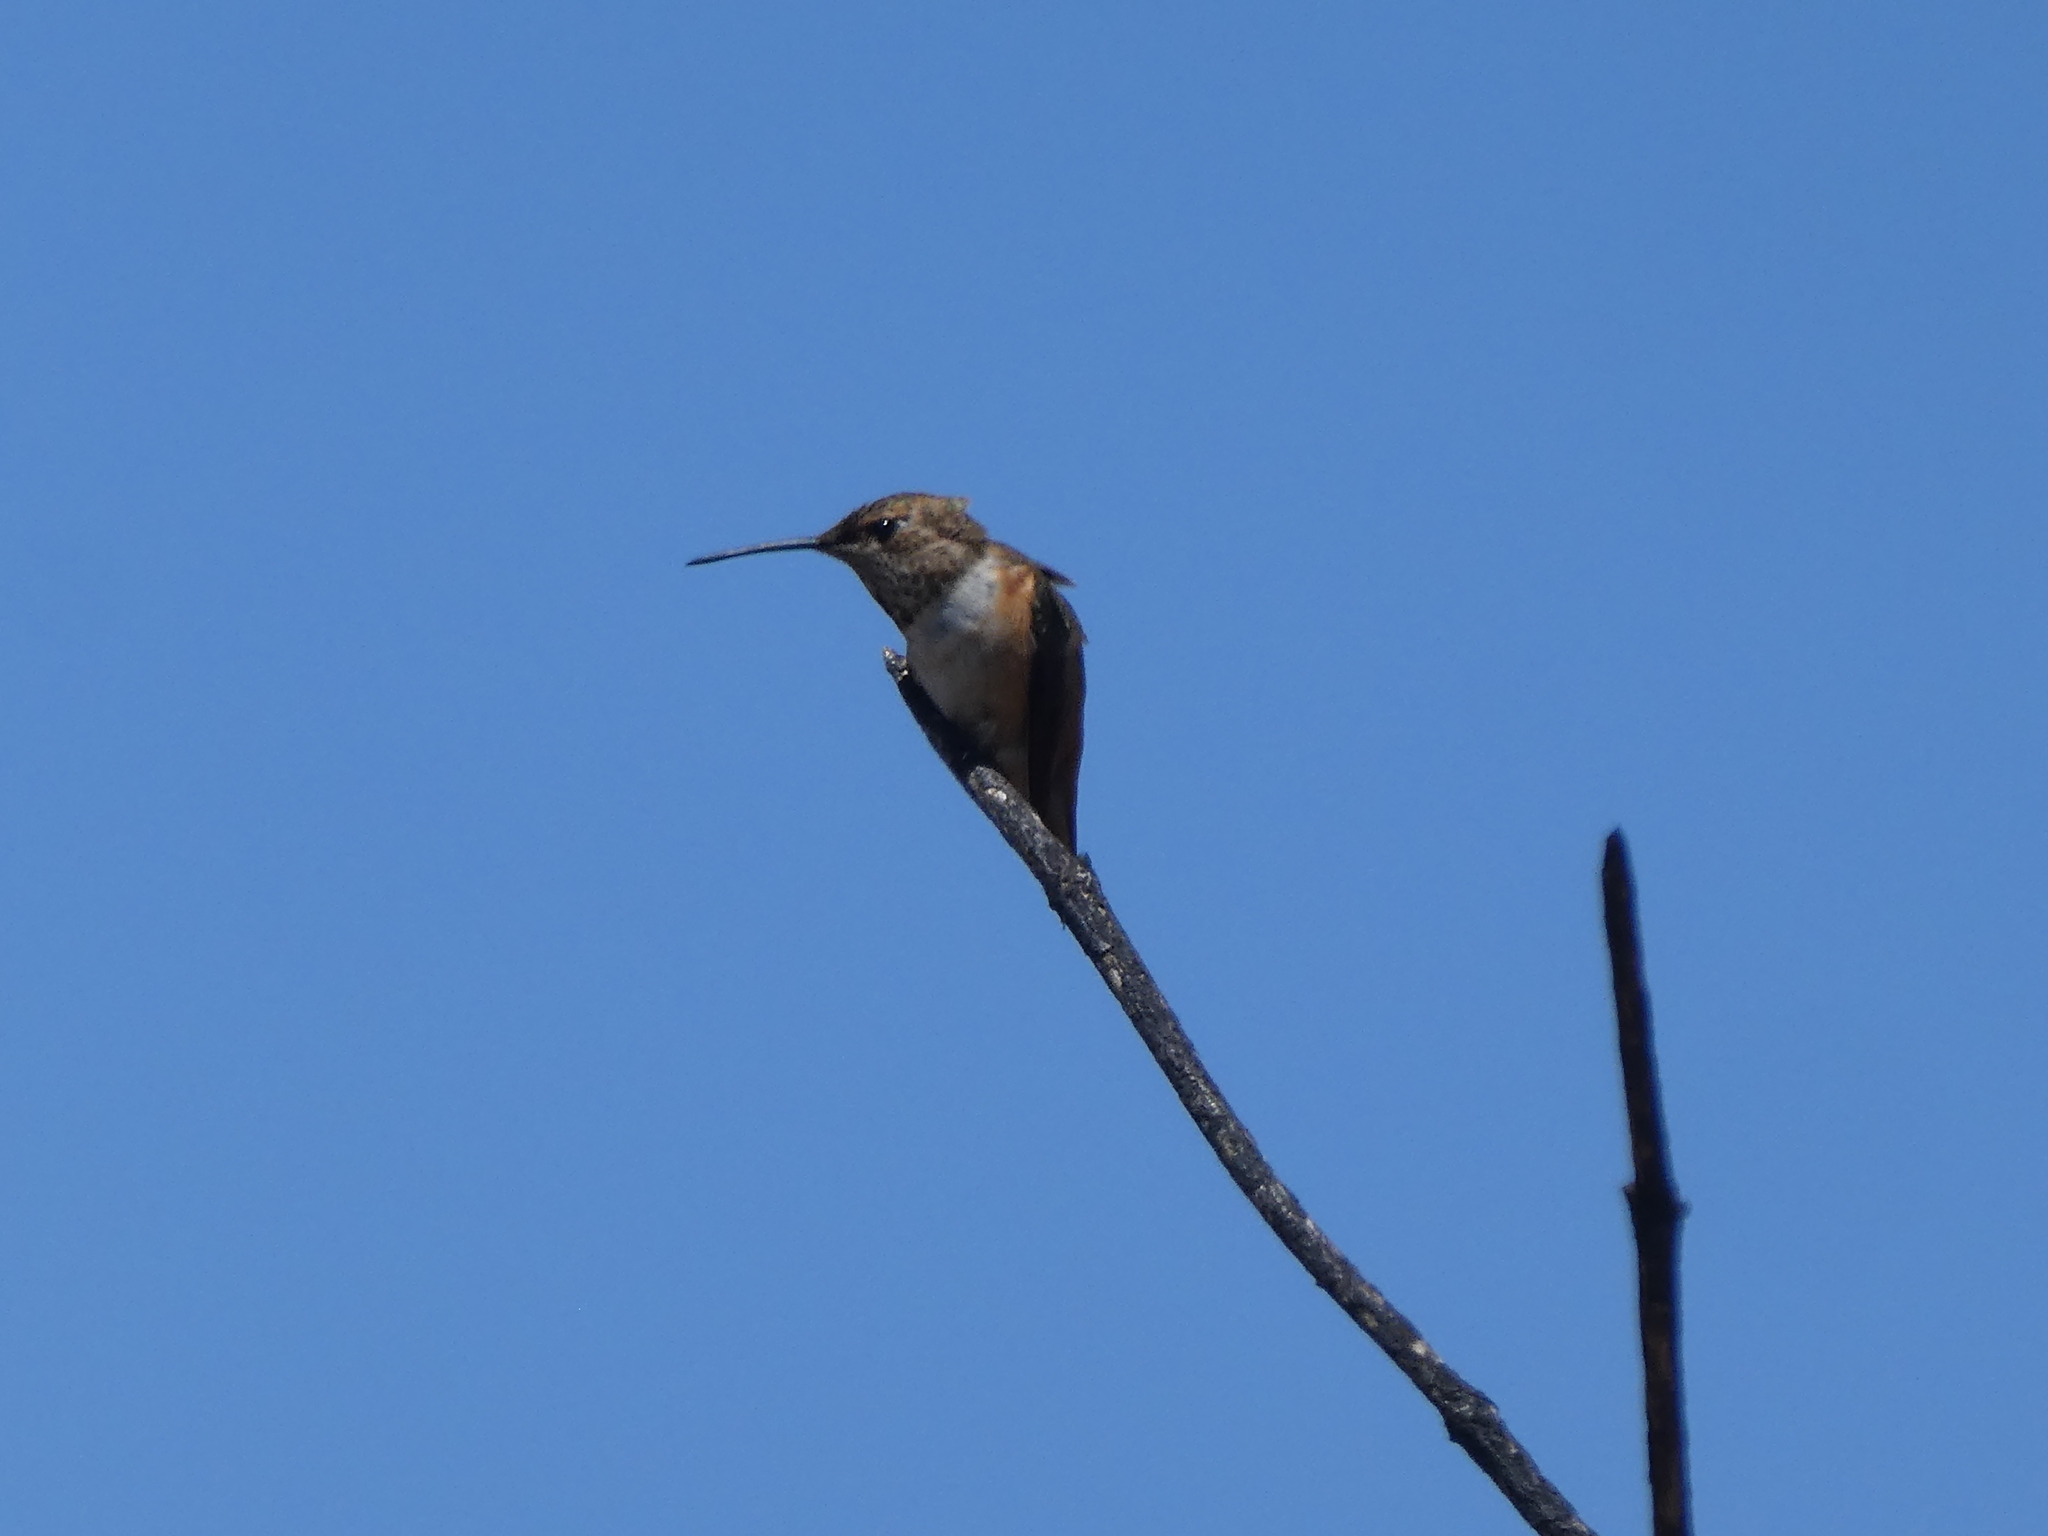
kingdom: Animalia
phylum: Chordata
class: Aves
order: Apodiformes
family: Trochilidae
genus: Selasphorus
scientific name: Selasphorus
